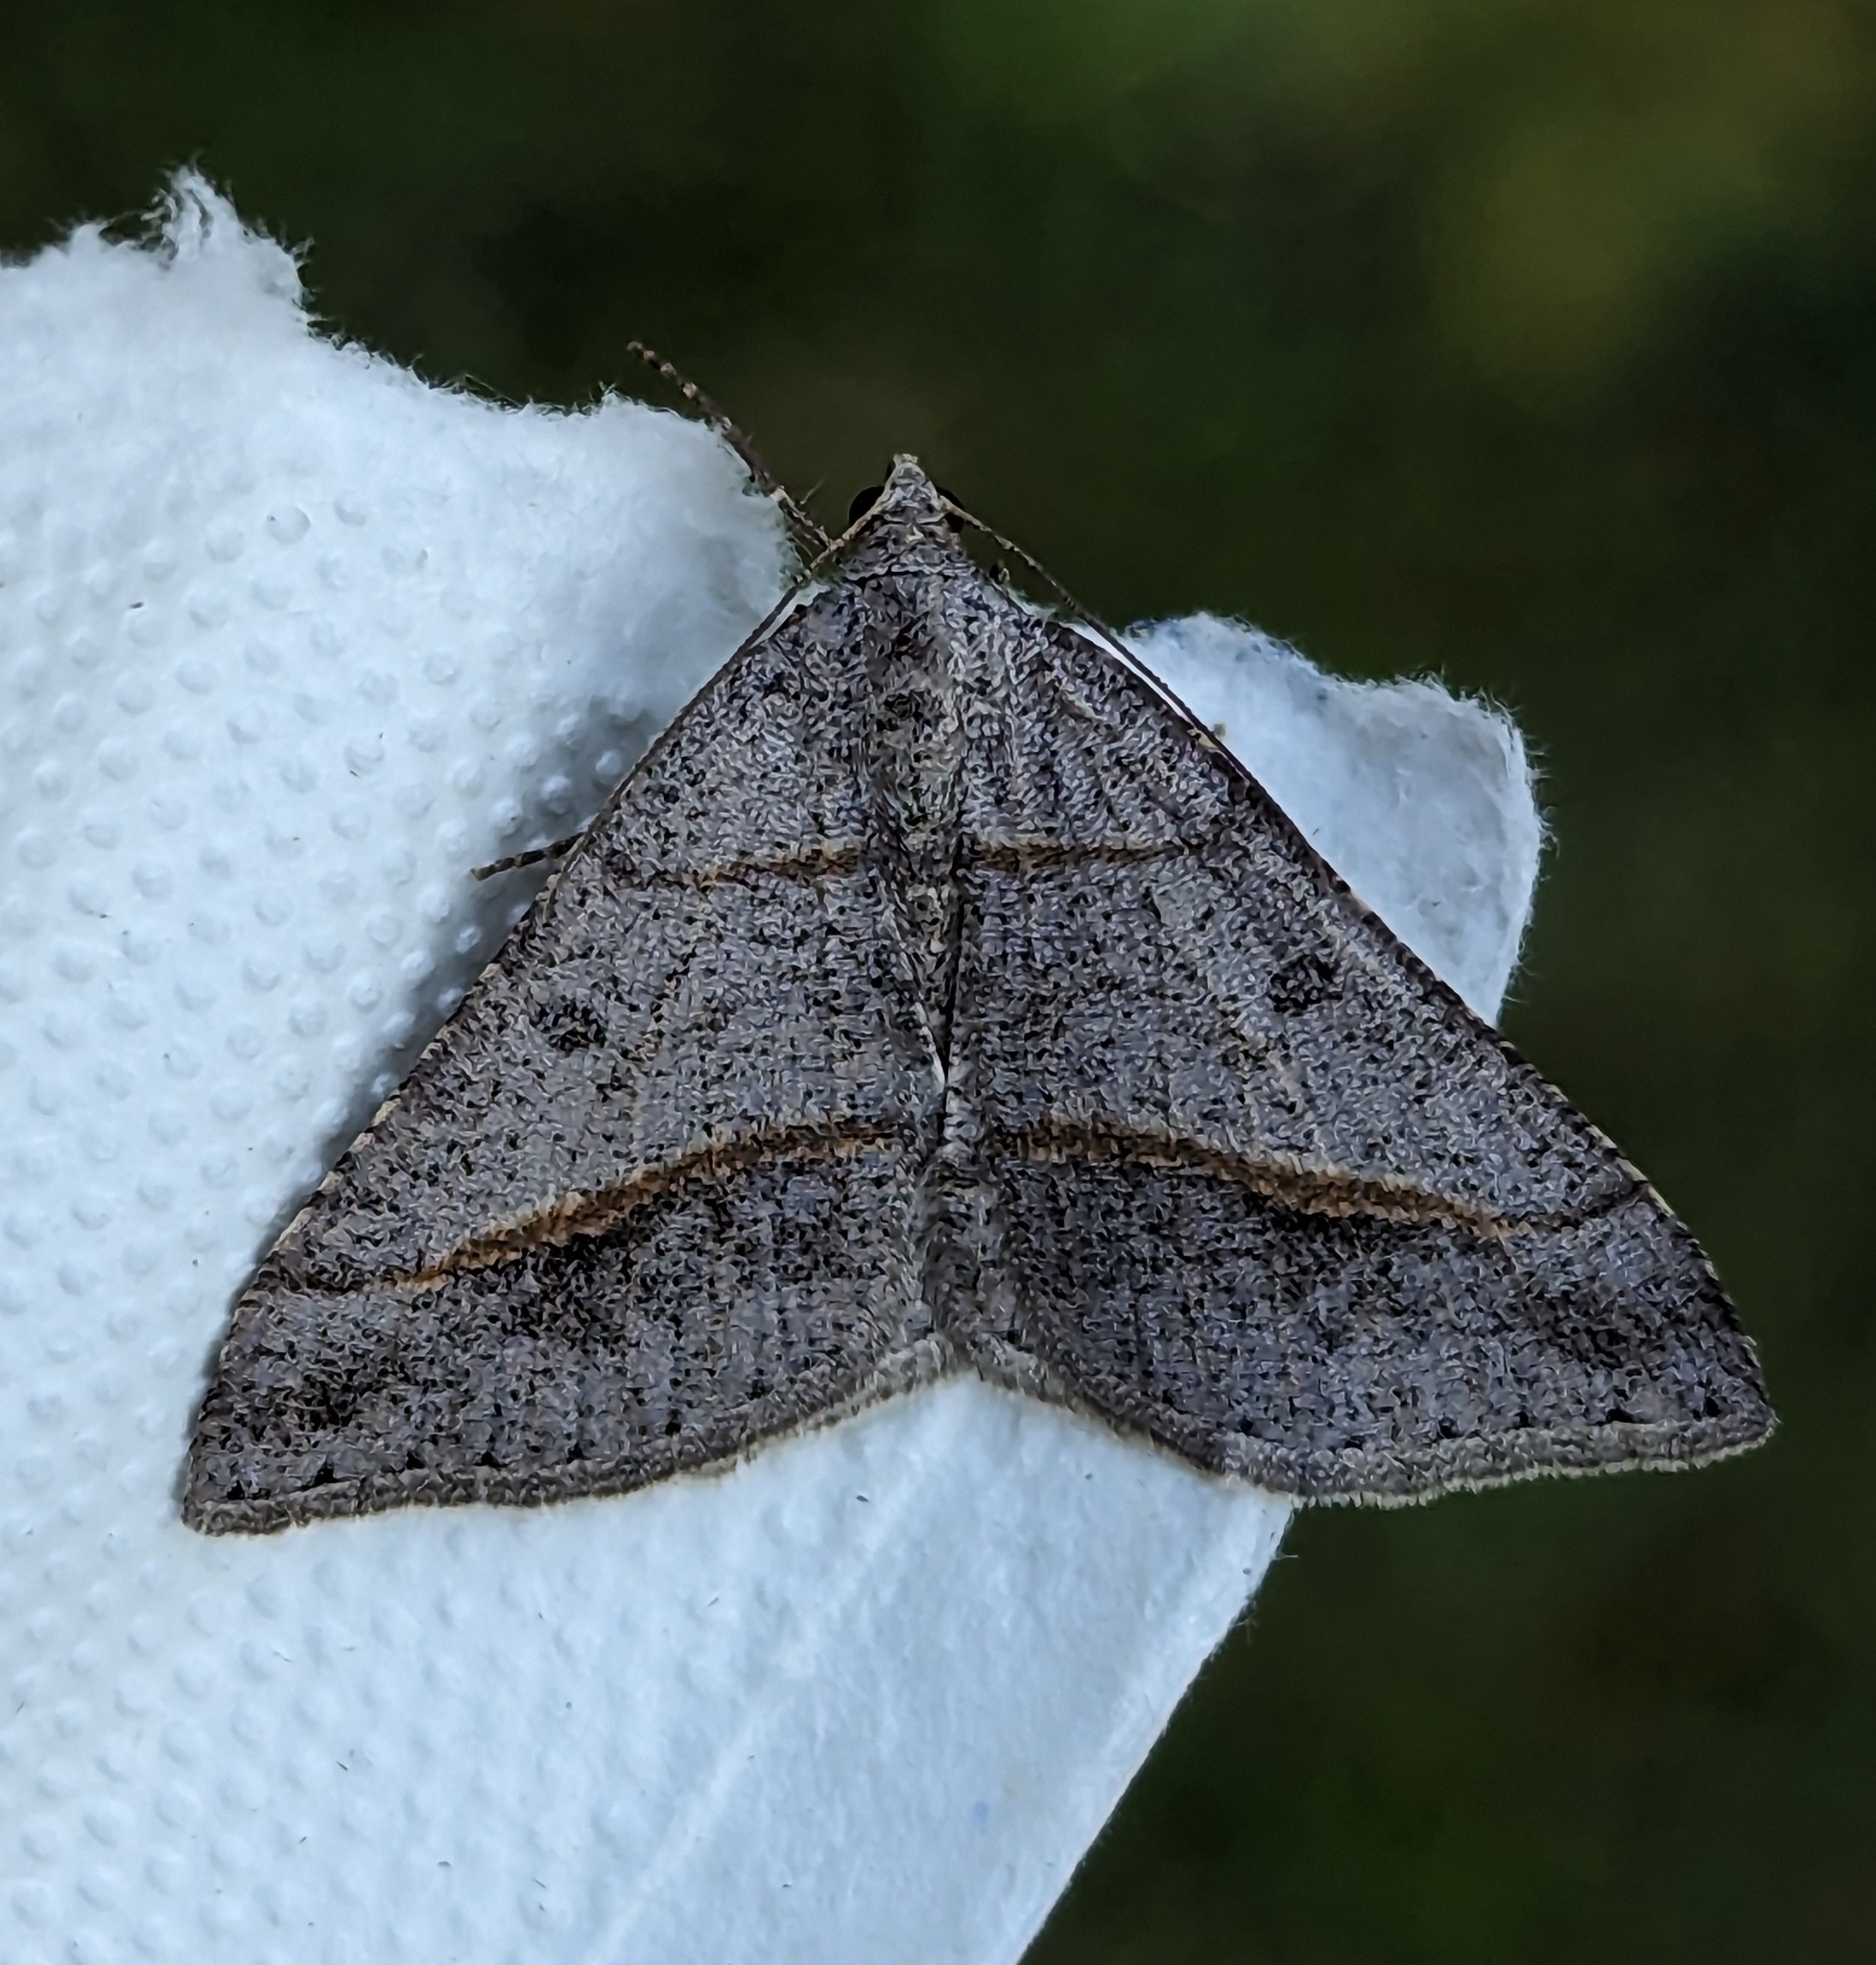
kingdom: Animalia
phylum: Arthropoda
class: Insecta
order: Lepidoptera
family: Geometridae
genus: Digrammia
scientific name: Digrammia neptaria
